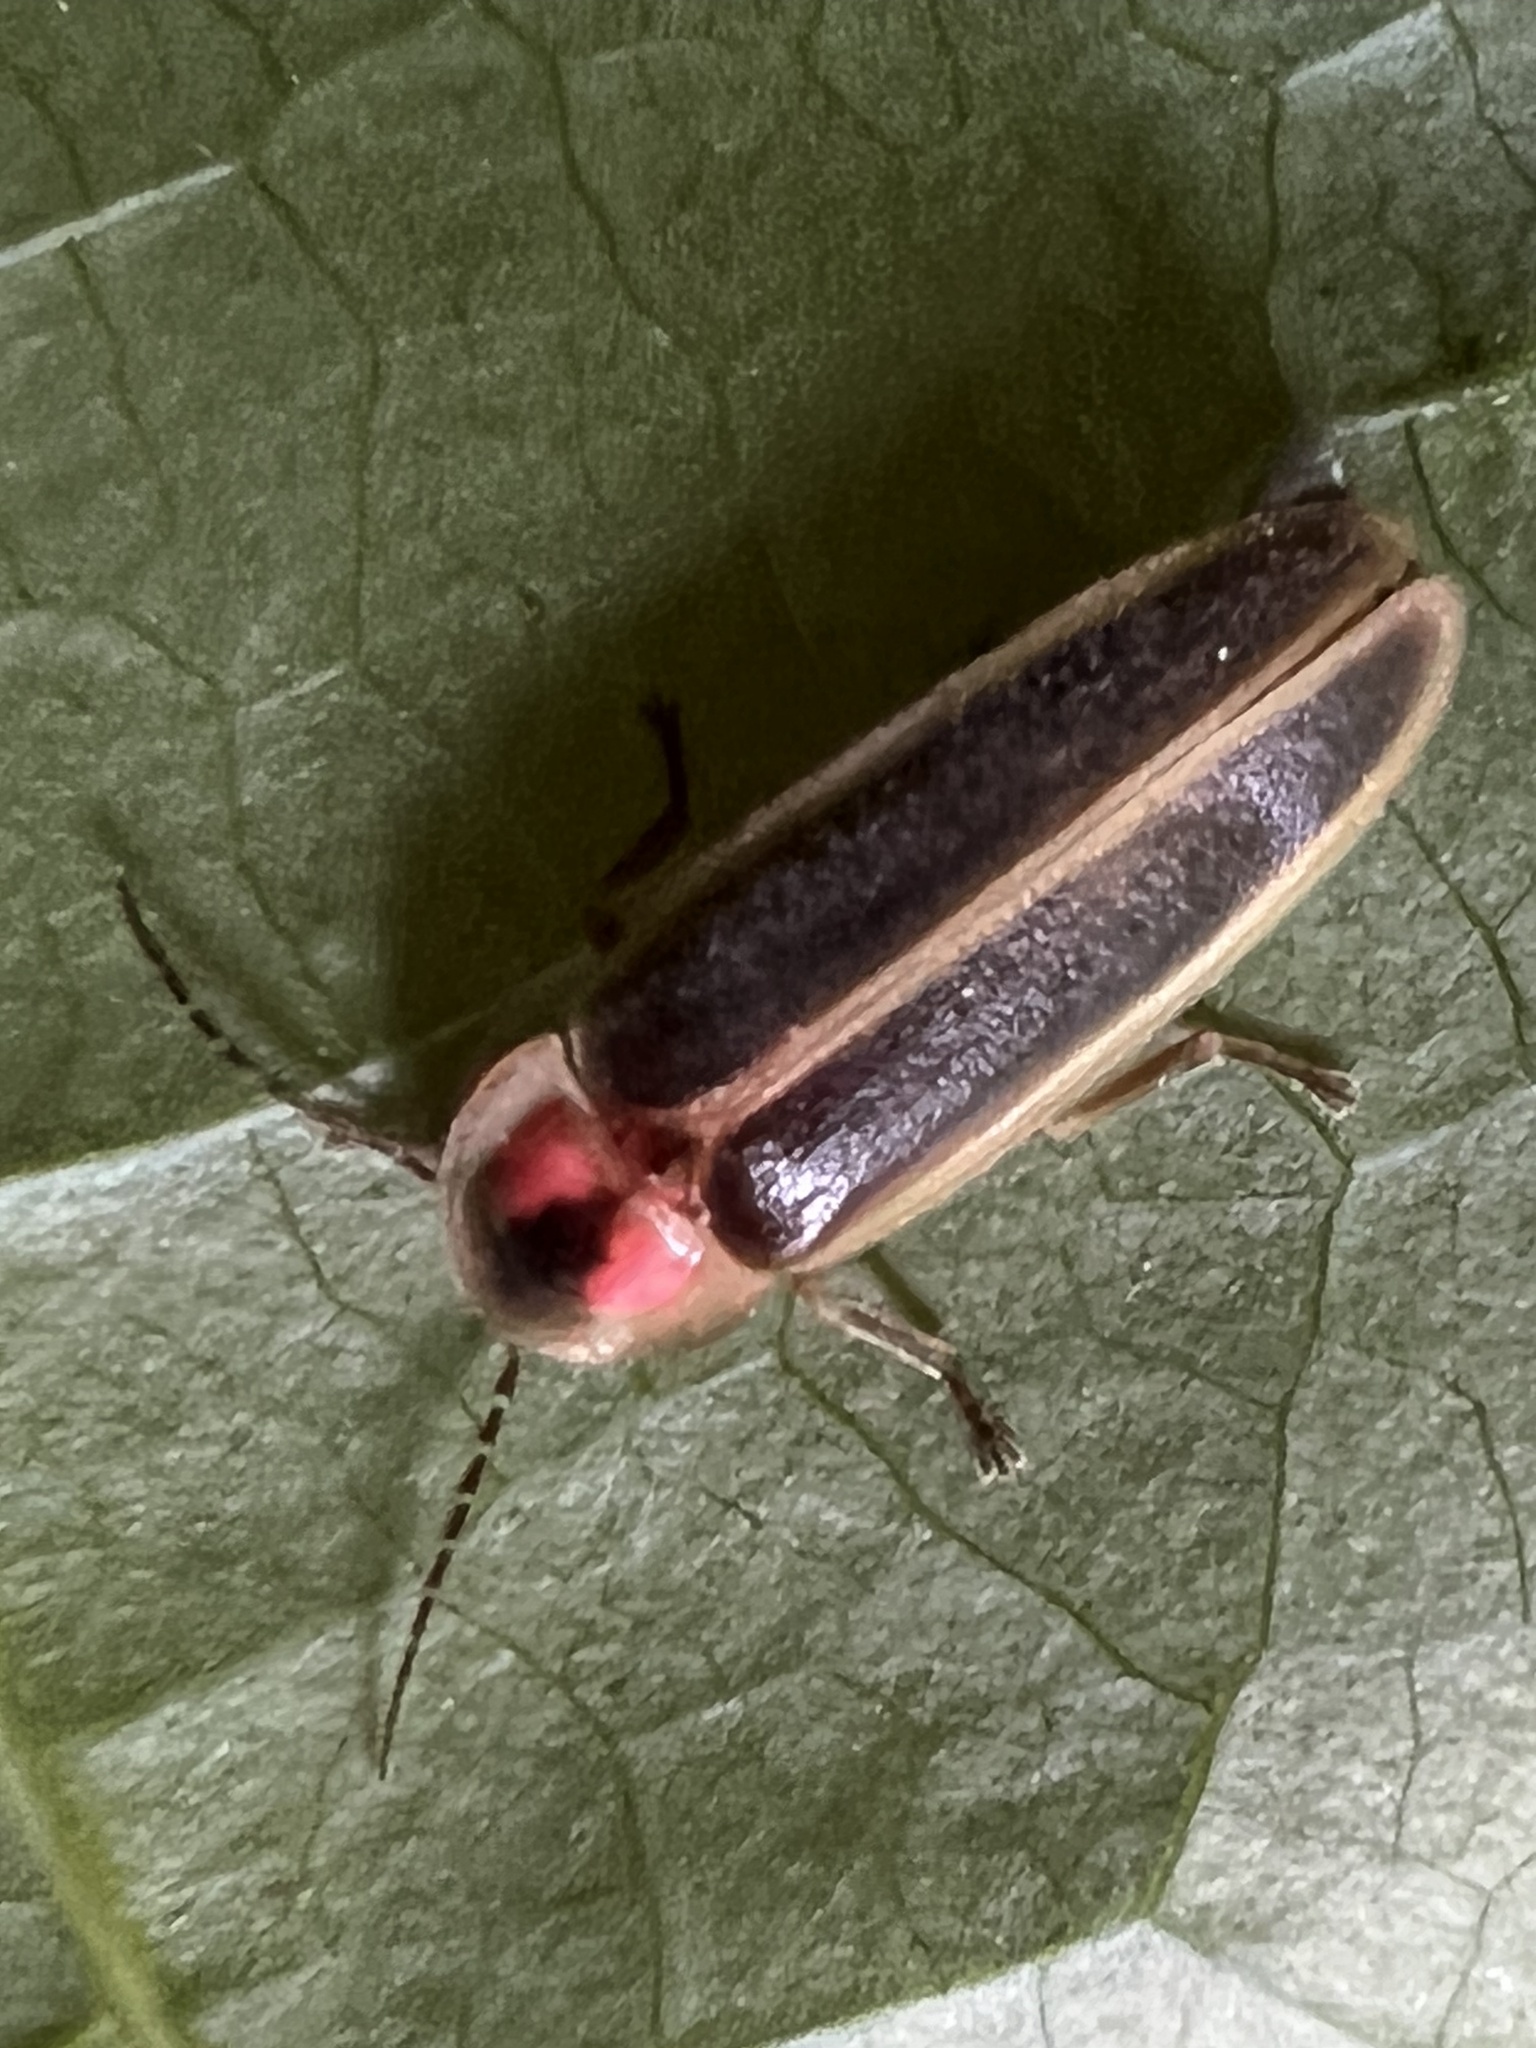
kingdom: Animalia
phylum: Arthropoda
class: Insecta
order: Coleoptera
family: Lampyridae
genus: Photinus
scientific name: Photinus pyralis
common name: Big dipper firefly
